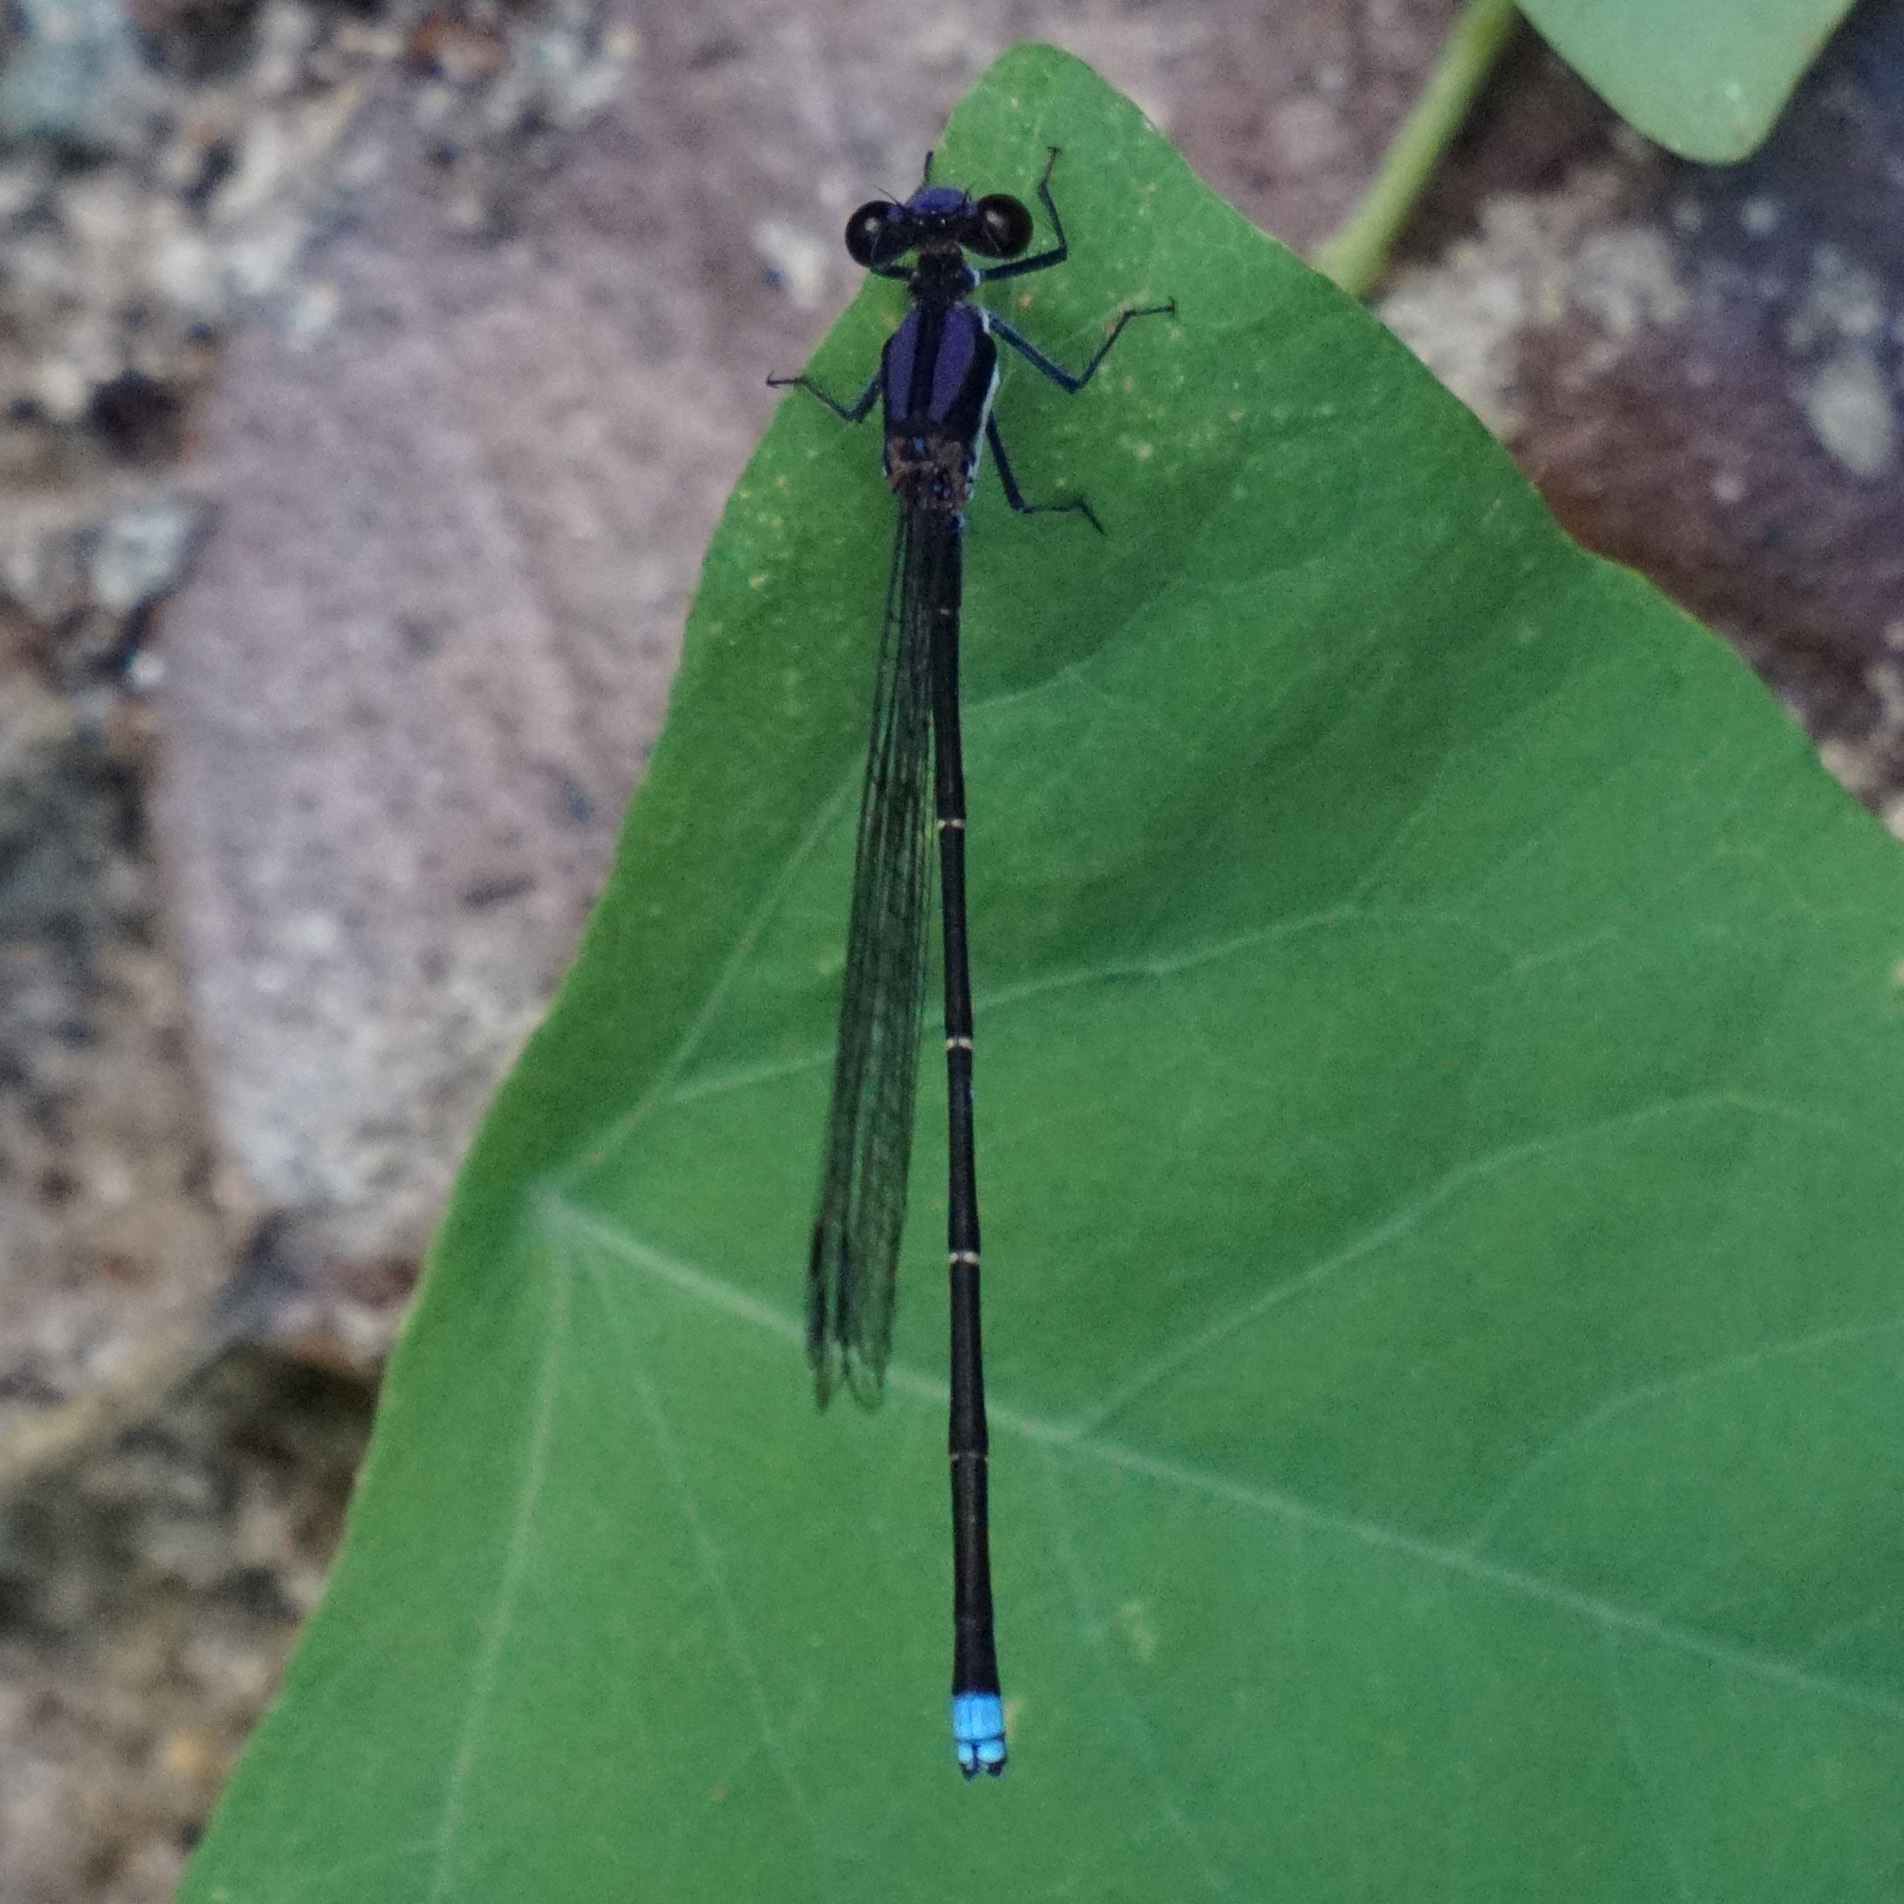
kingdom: Animalia
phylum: Arthropoda
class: Insecta
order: Odonata
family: Coenagrionidae
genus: Argia
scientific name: Argia tibialis
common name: Blue-tipped dancer
